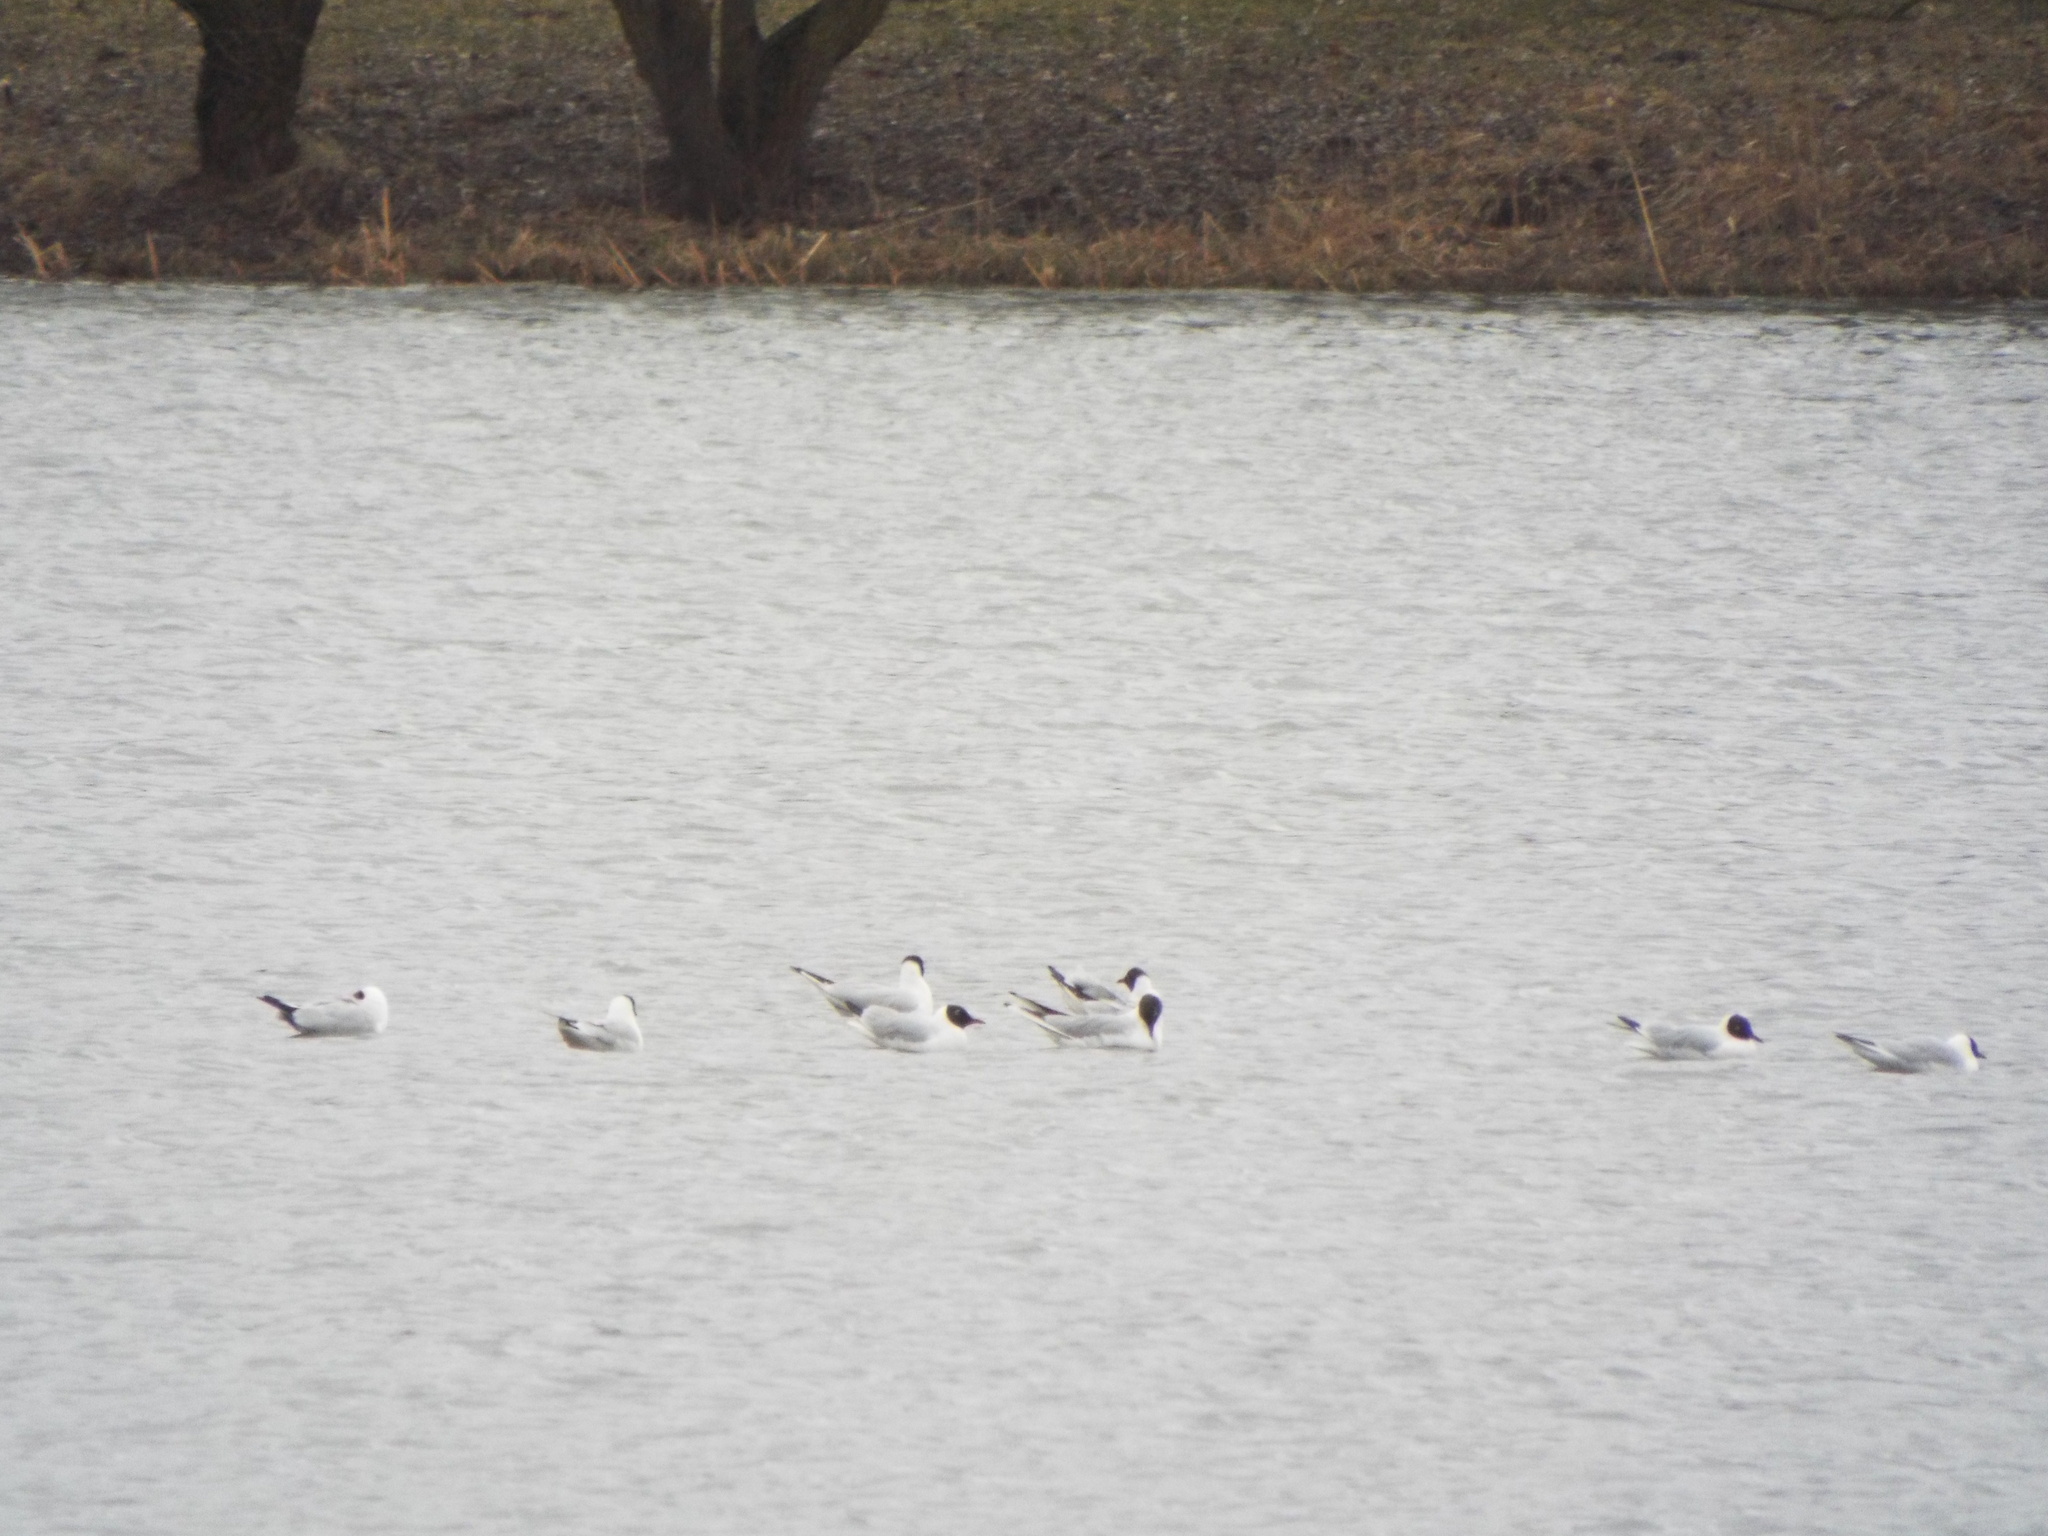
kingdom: Animalia
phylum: Chordata
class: Aves
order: Charadriiformes
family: Laridae
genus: Chroicocephalus
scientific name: Chroicocephalus ridibundus
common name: Black-headed gull
